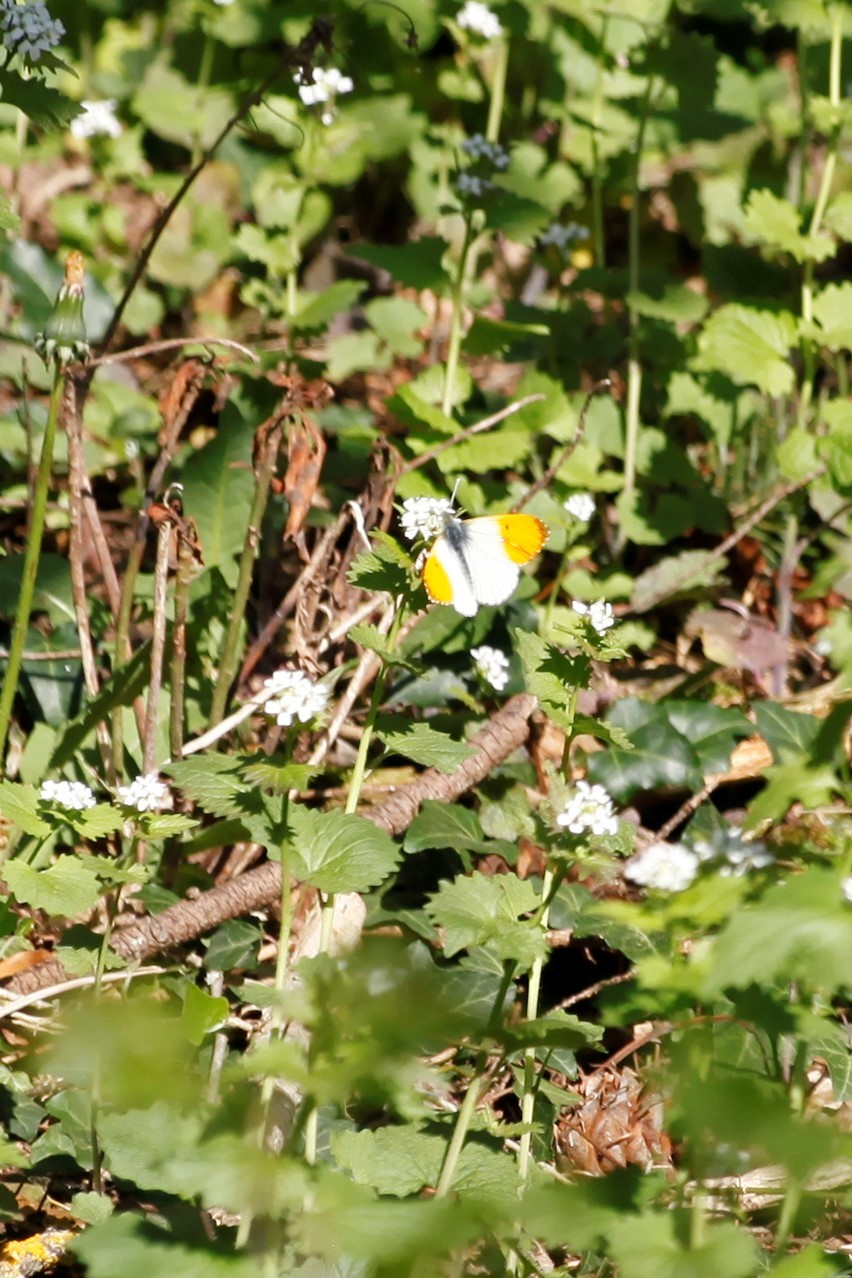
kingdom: Animalia
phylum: Arthropoda
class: Insecta
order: Lepidoptera
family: Pieridae
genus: Anthocharis
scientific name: Anthocharis cardamines
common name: Orange-tip
